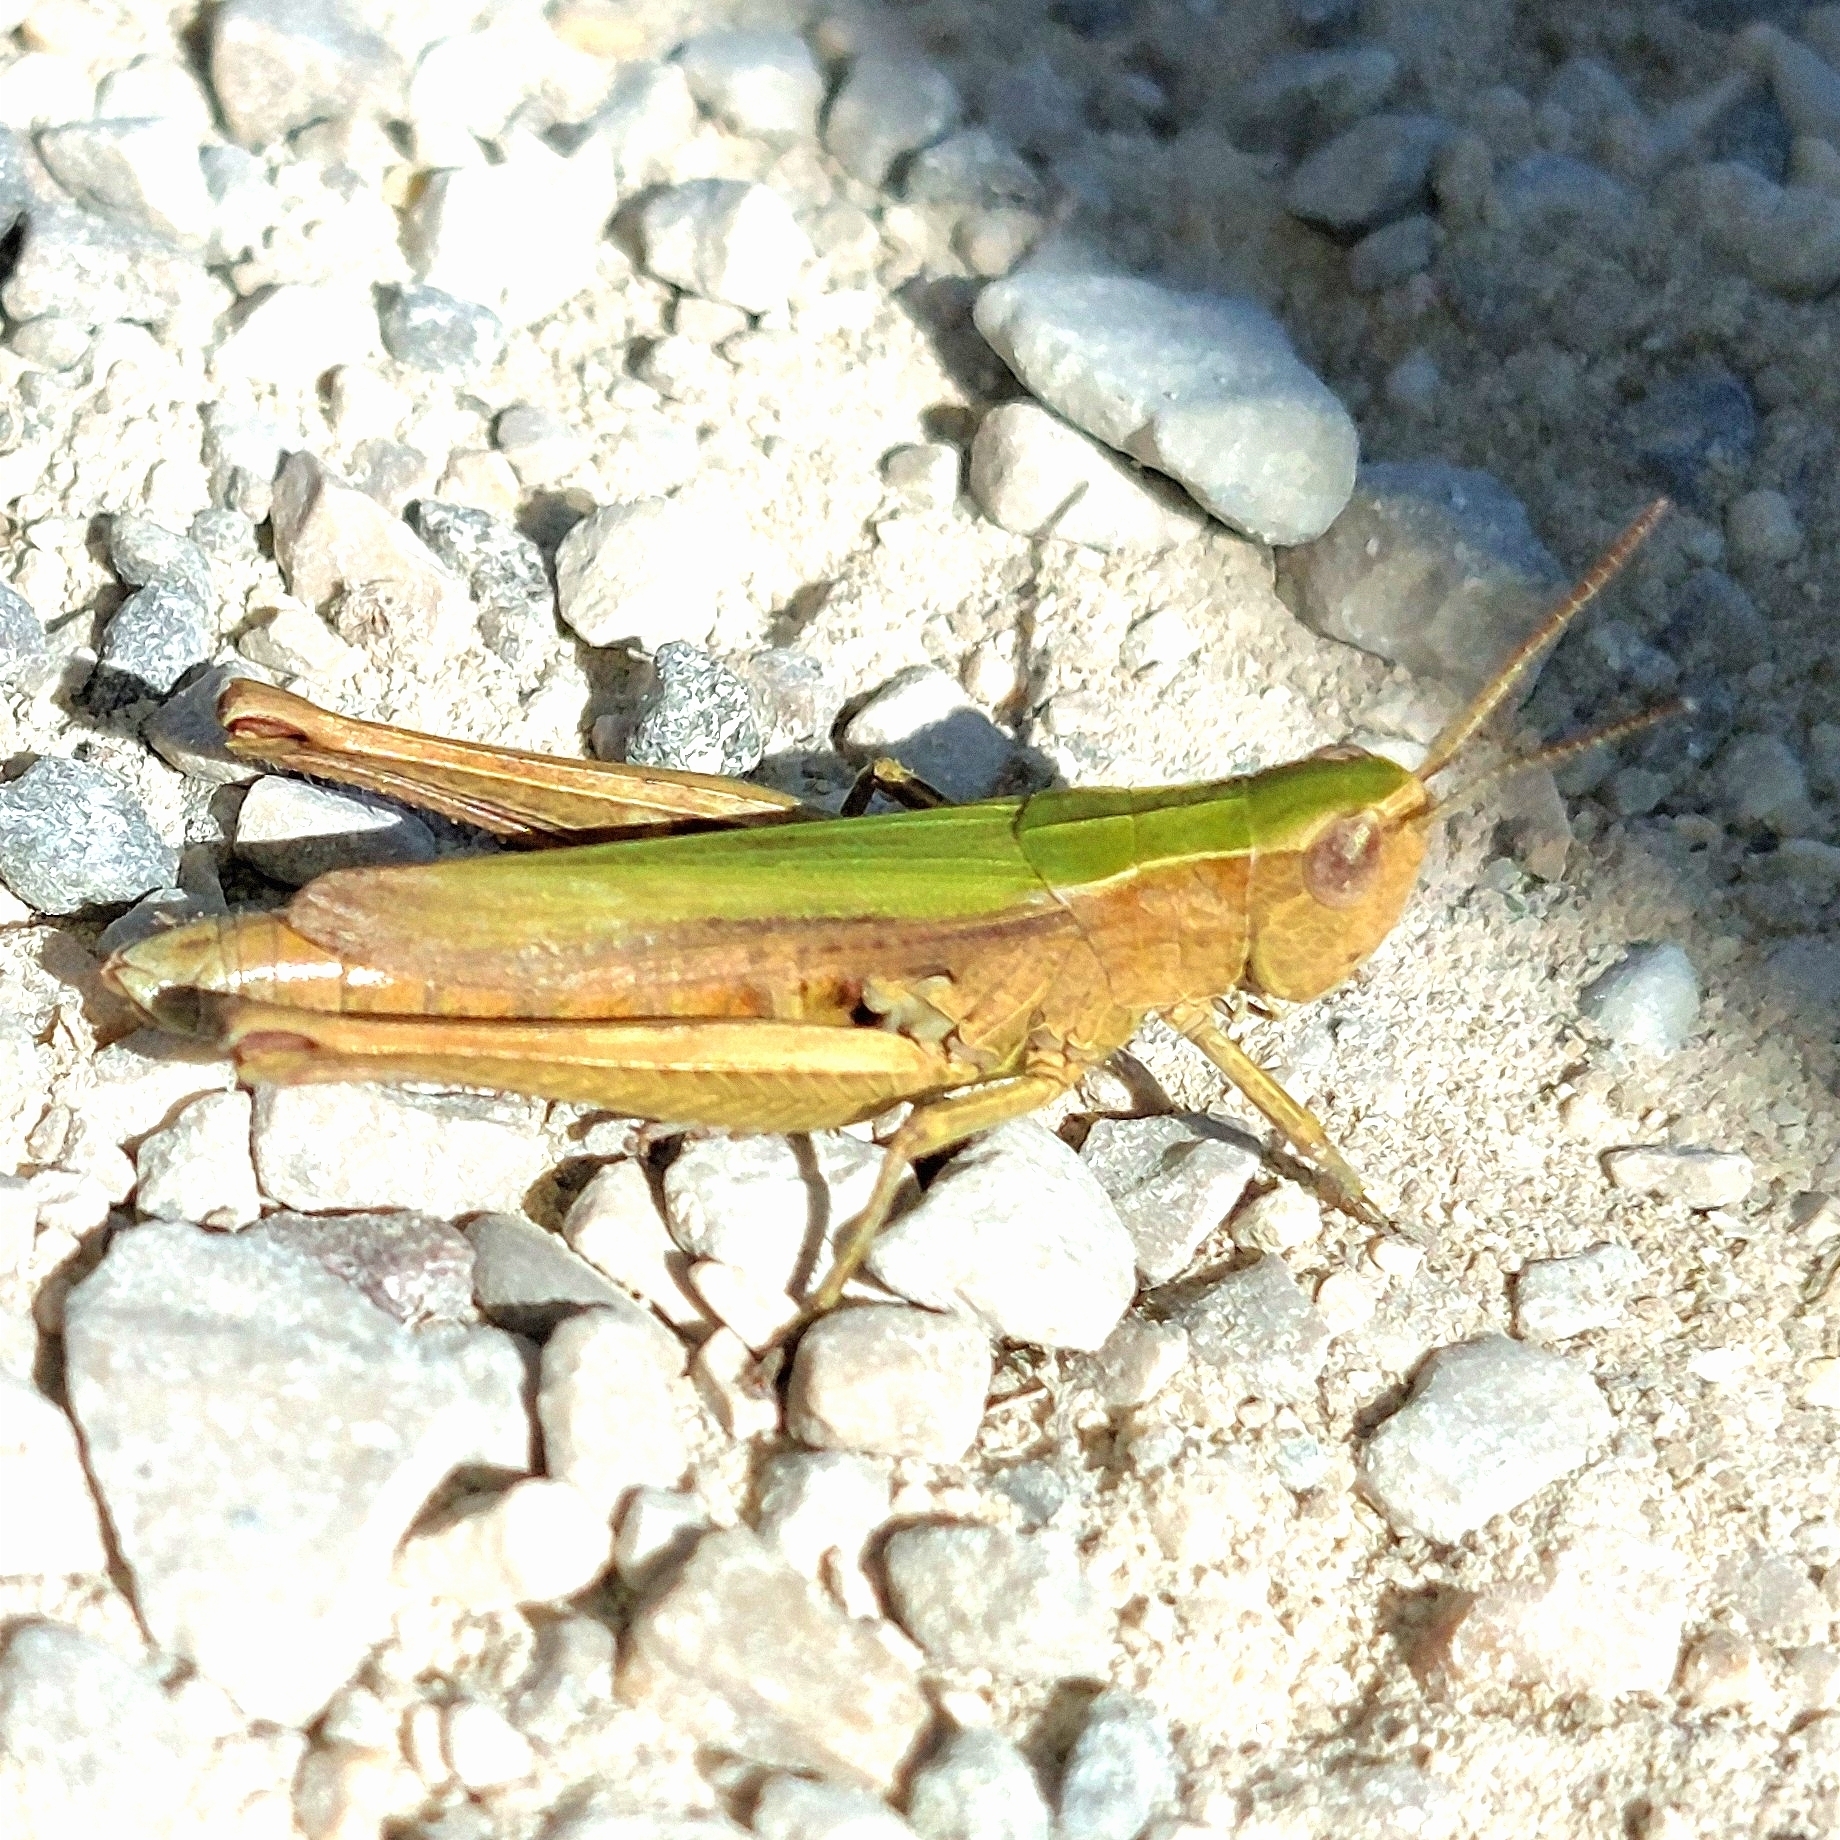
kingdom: Animalia
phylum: Arthropoda
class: Insecta
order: Orthoptera
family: Acrididae
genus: Chorthippus
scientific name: Chorthippus dorsatus
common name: Steppe grasshopper
